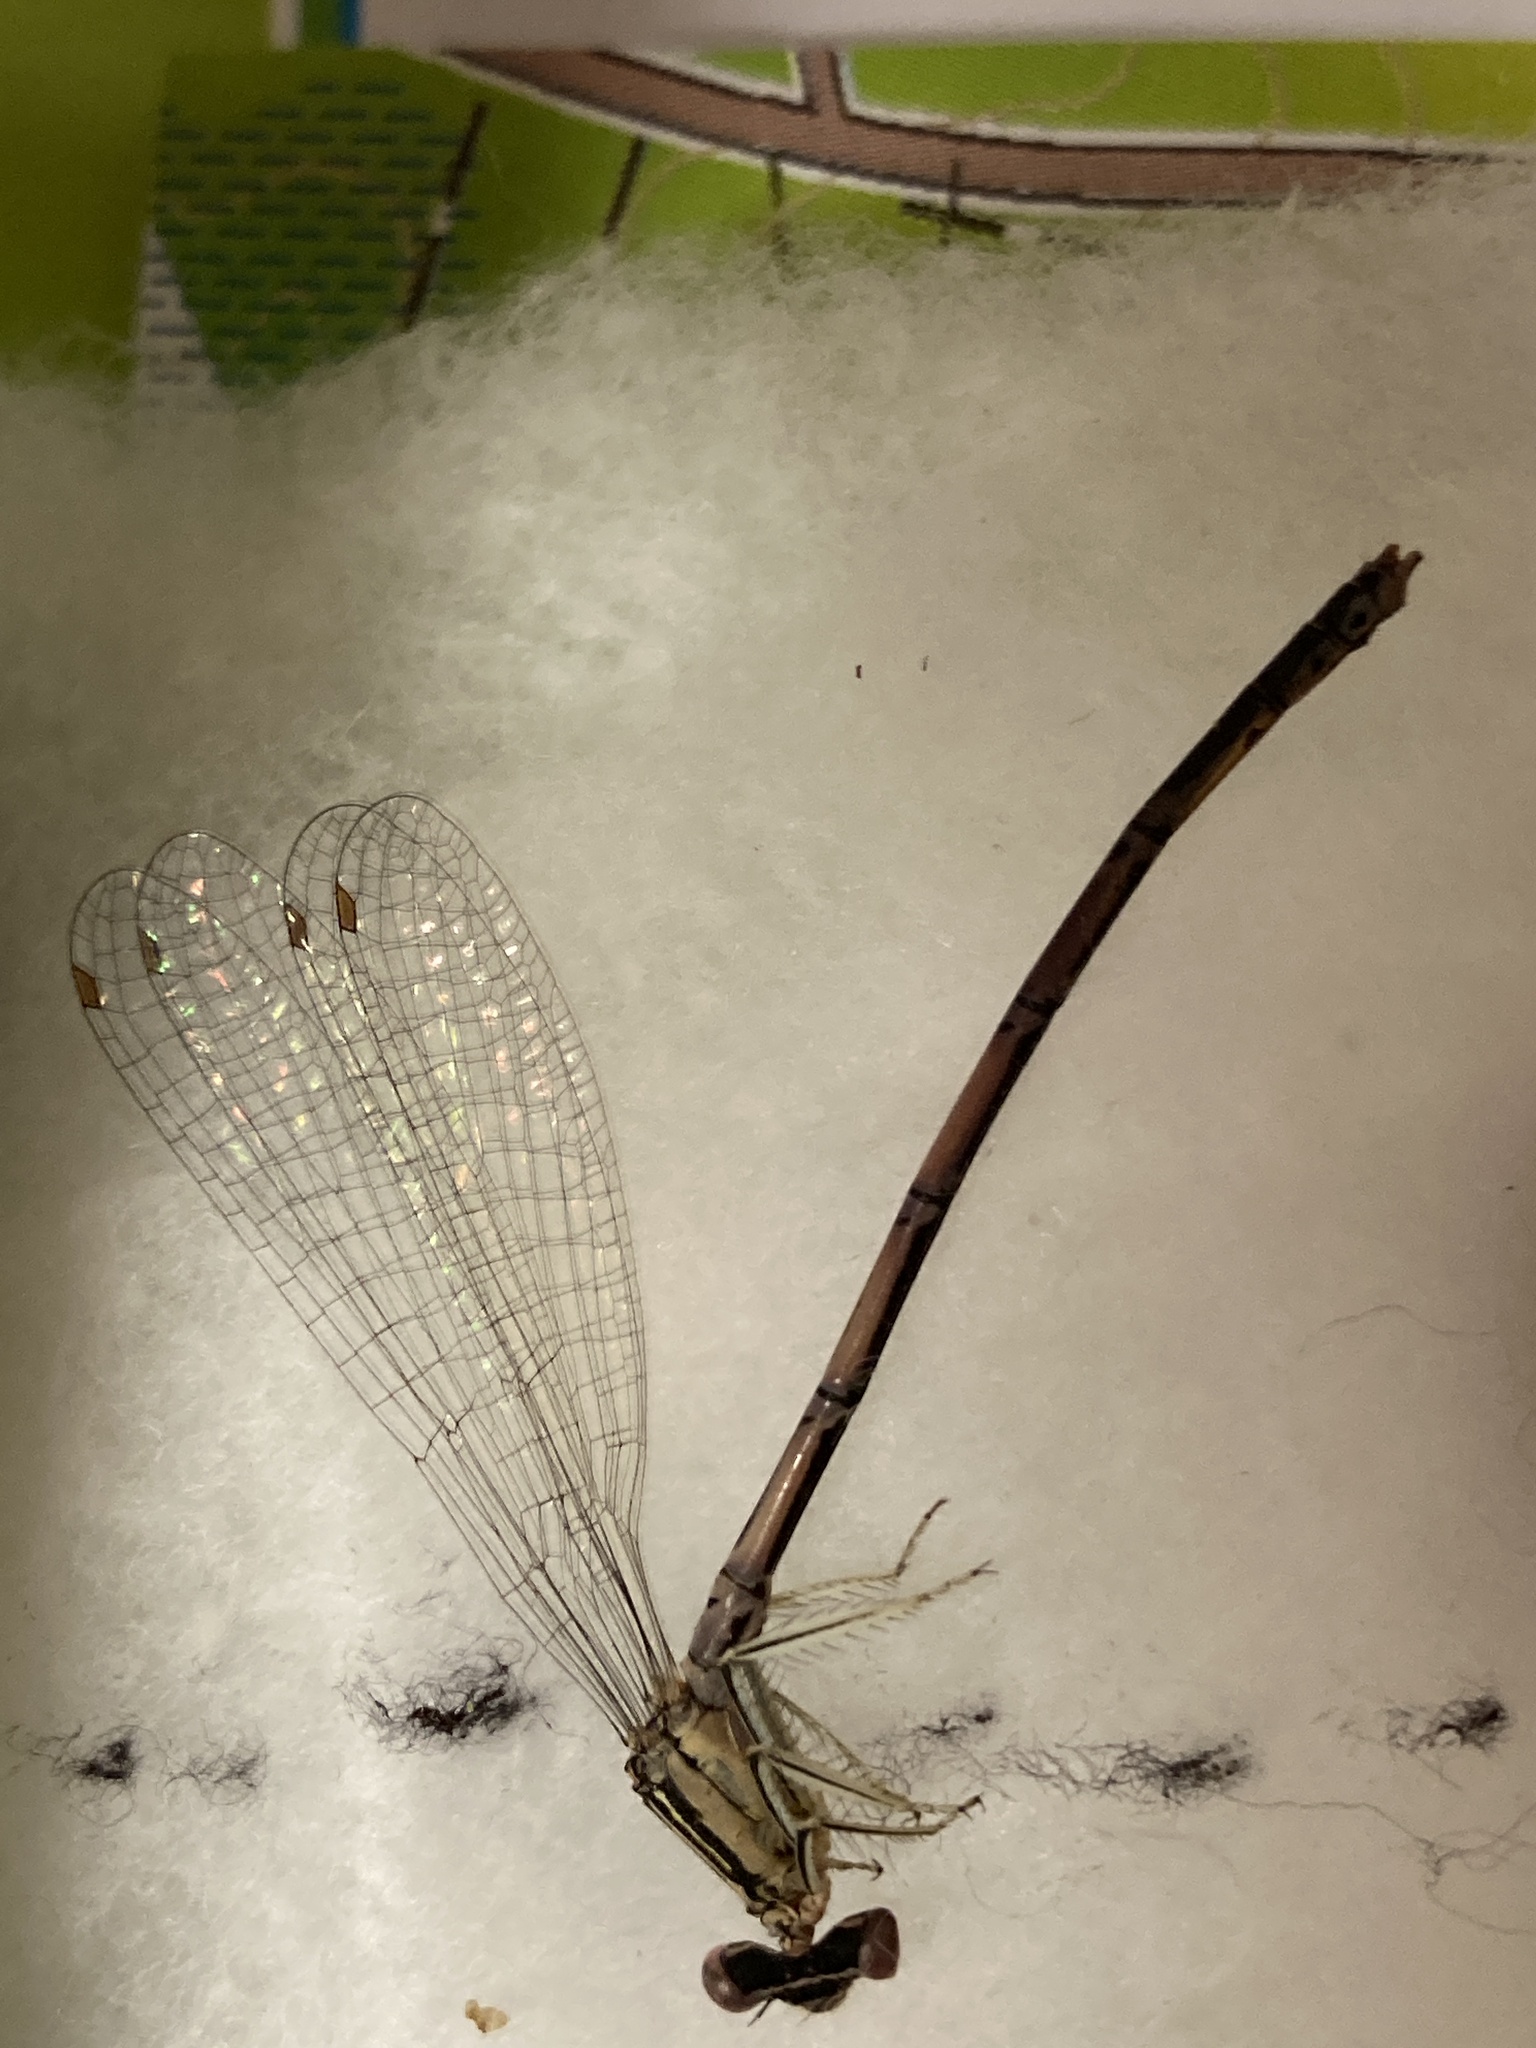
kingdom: Animalia
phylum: Arthropoda
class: Insecta
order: Odonata
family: Platycnemididae
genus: Platycnemis
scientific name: Platycnemis pennipes
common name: White-legged damselfly
